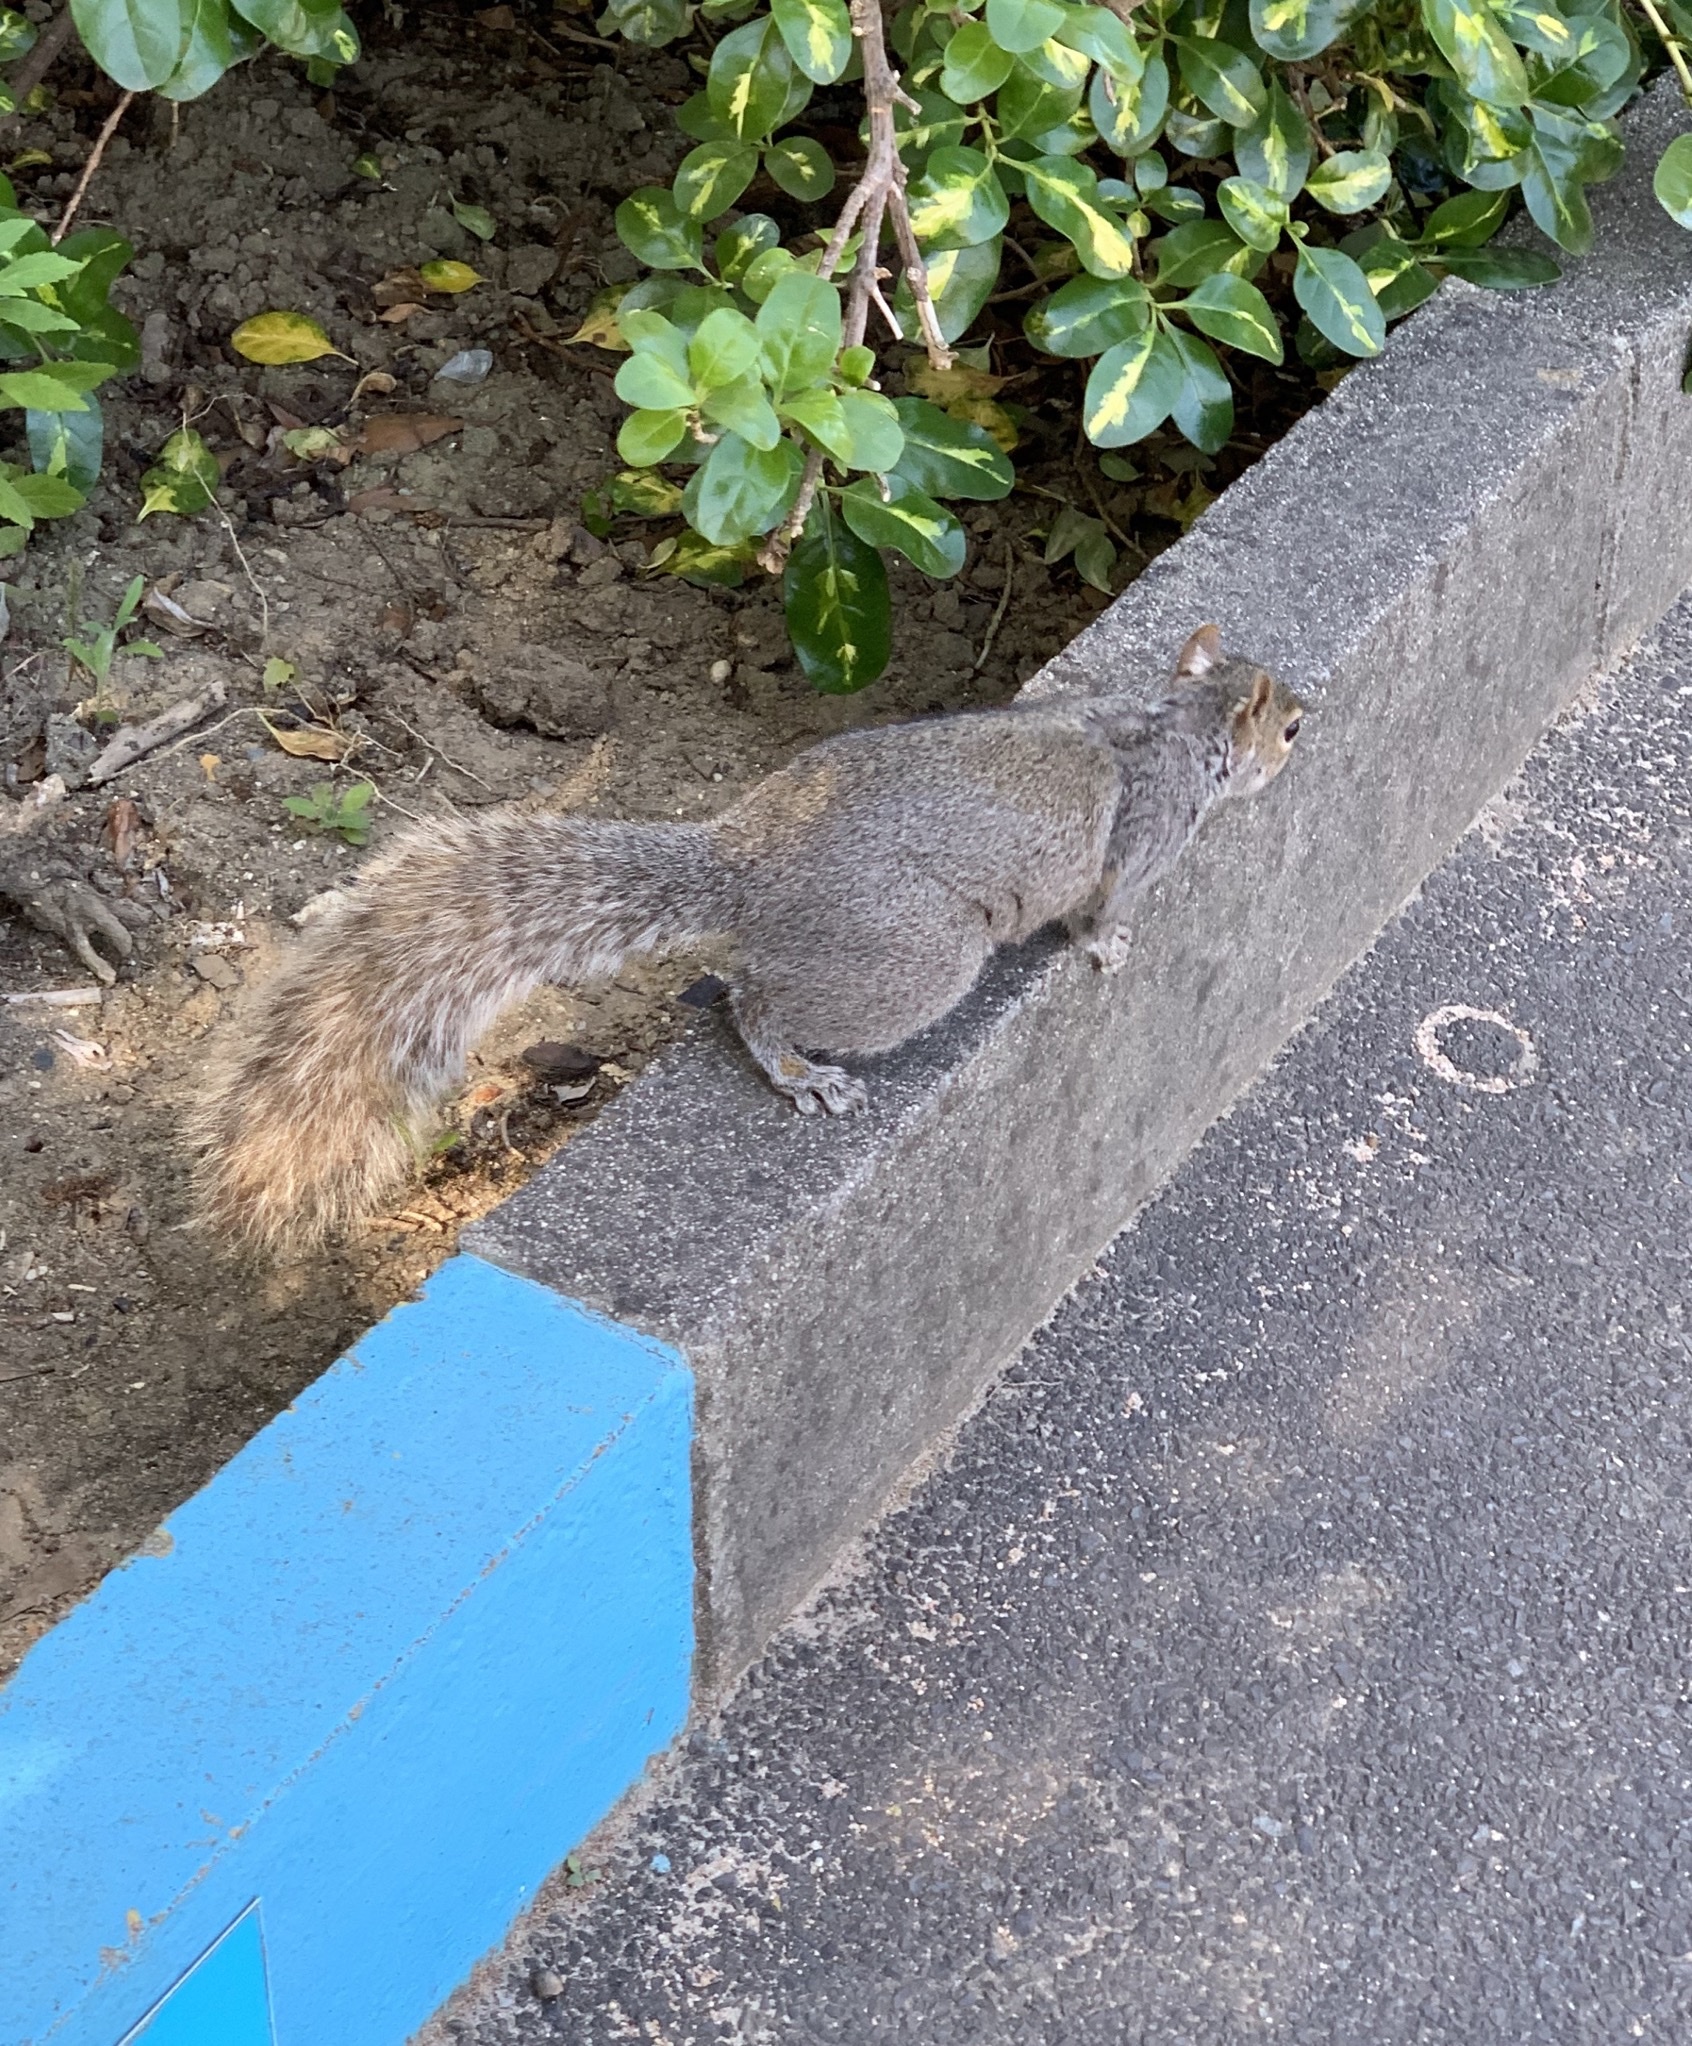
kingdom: Animalia
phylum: Chordata
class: Mammalia
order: Rodentia
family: Sciuridae
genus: Sciurus
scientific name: Sciurus carolinensis
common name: Eastern gray squirrel
